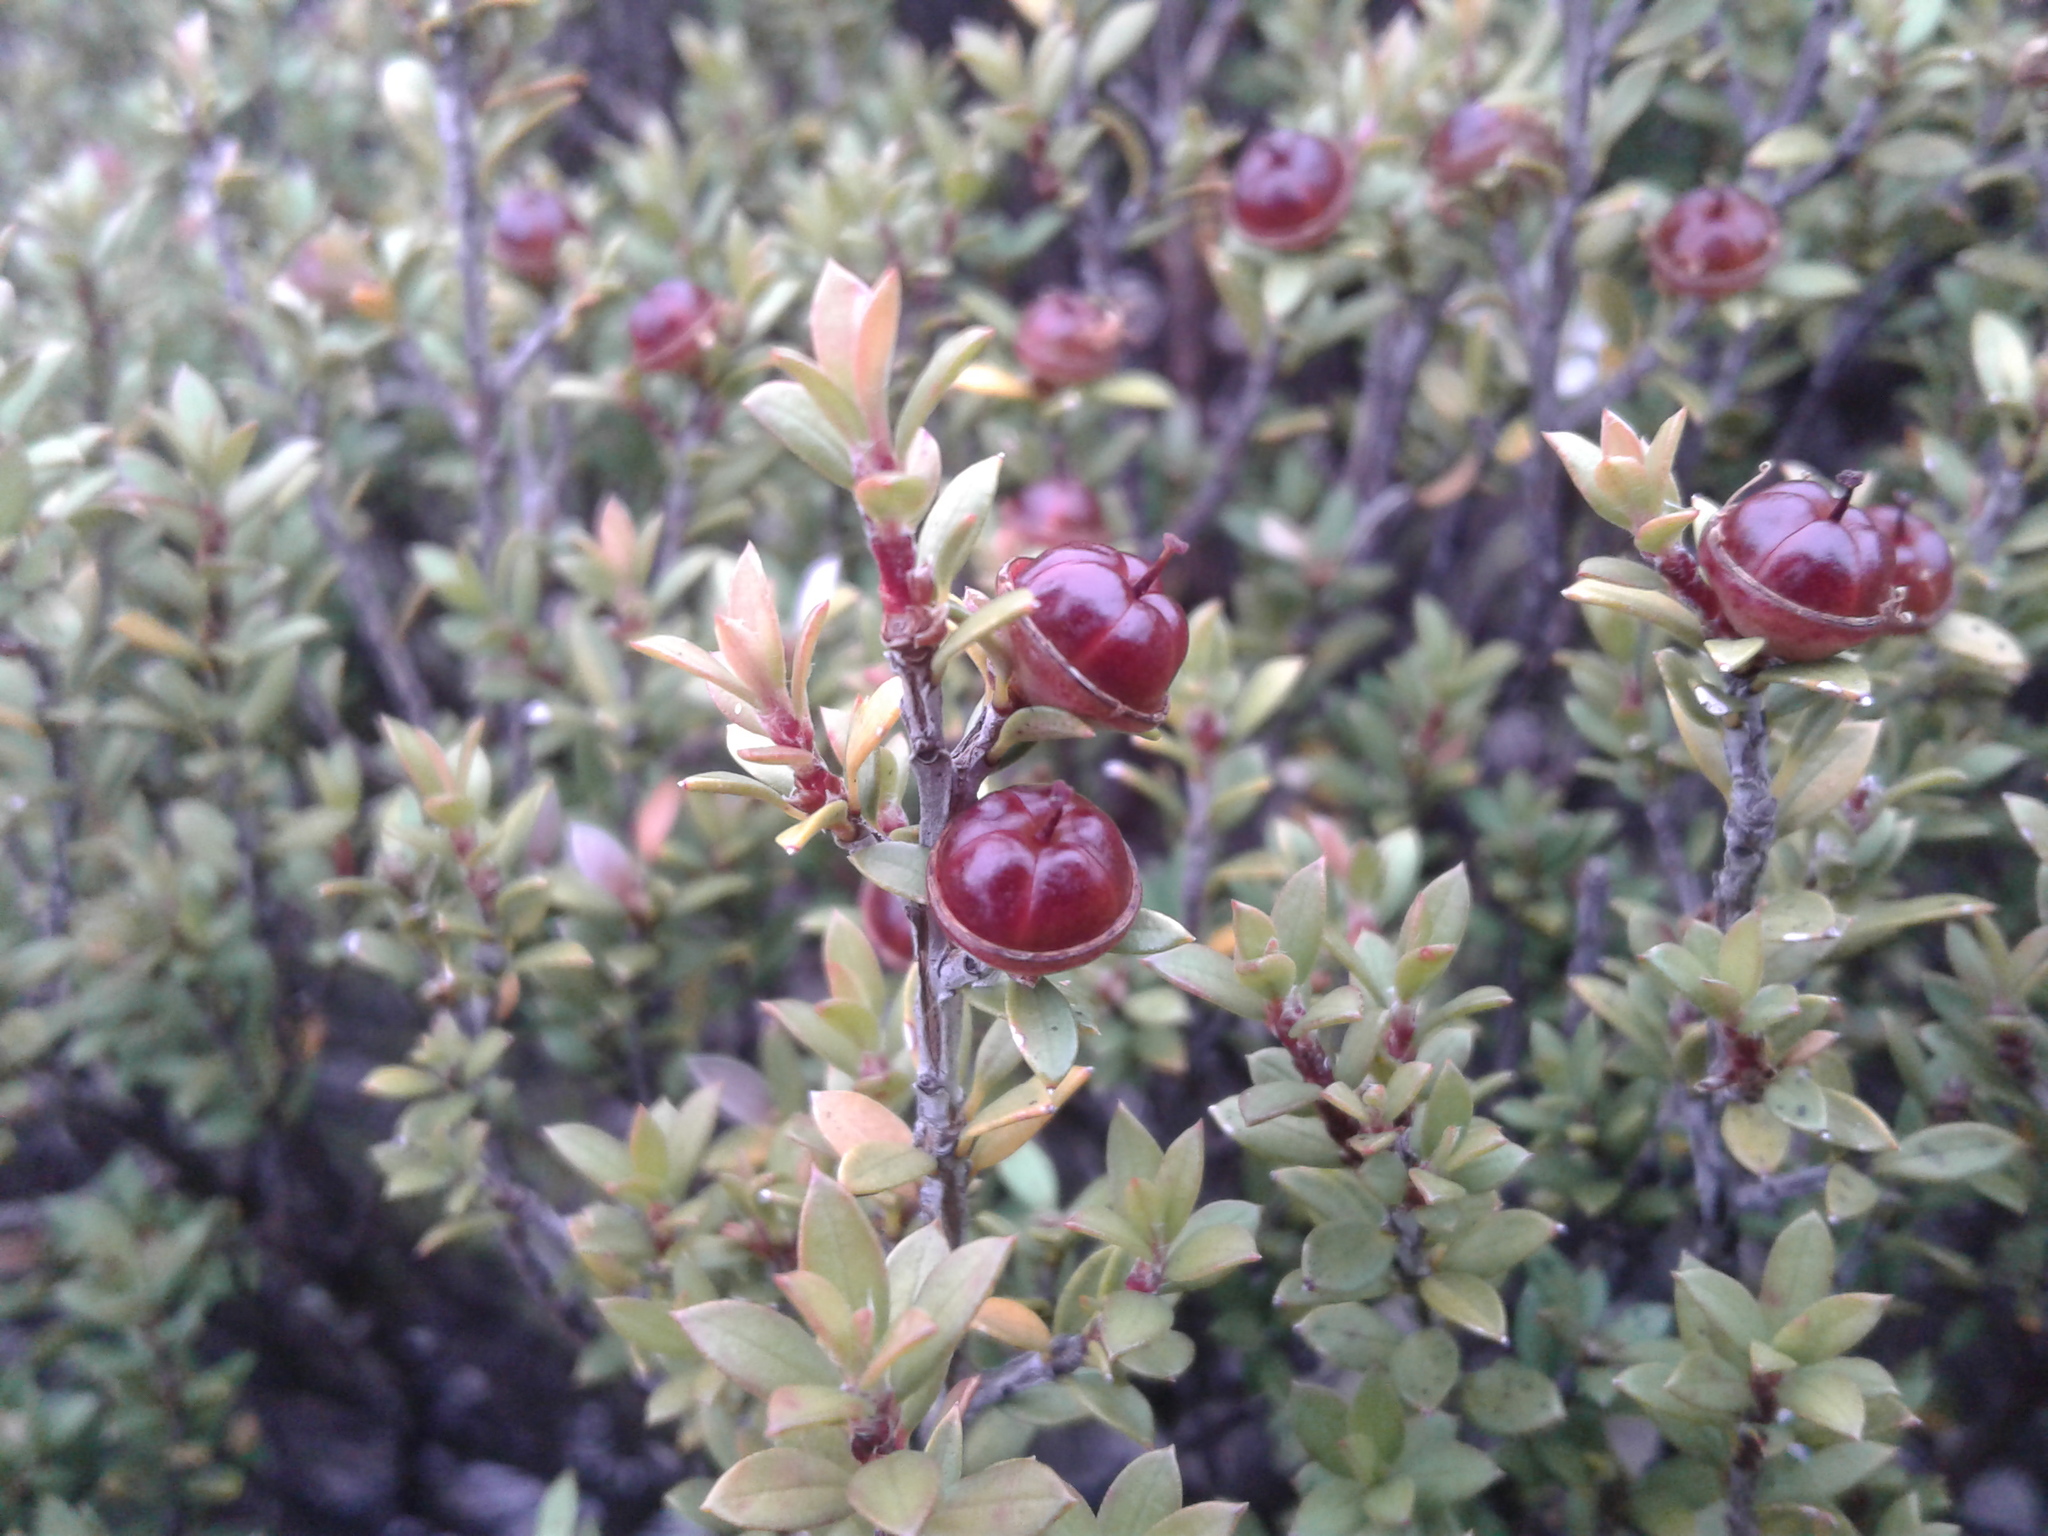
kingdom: Plantae
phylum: Tracheophyta
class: Magnoliopsida
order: Myrtales
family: Myrtaceae
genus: Leptospermum
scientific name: Leptospermum scoparium
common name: Broom tea-tree
